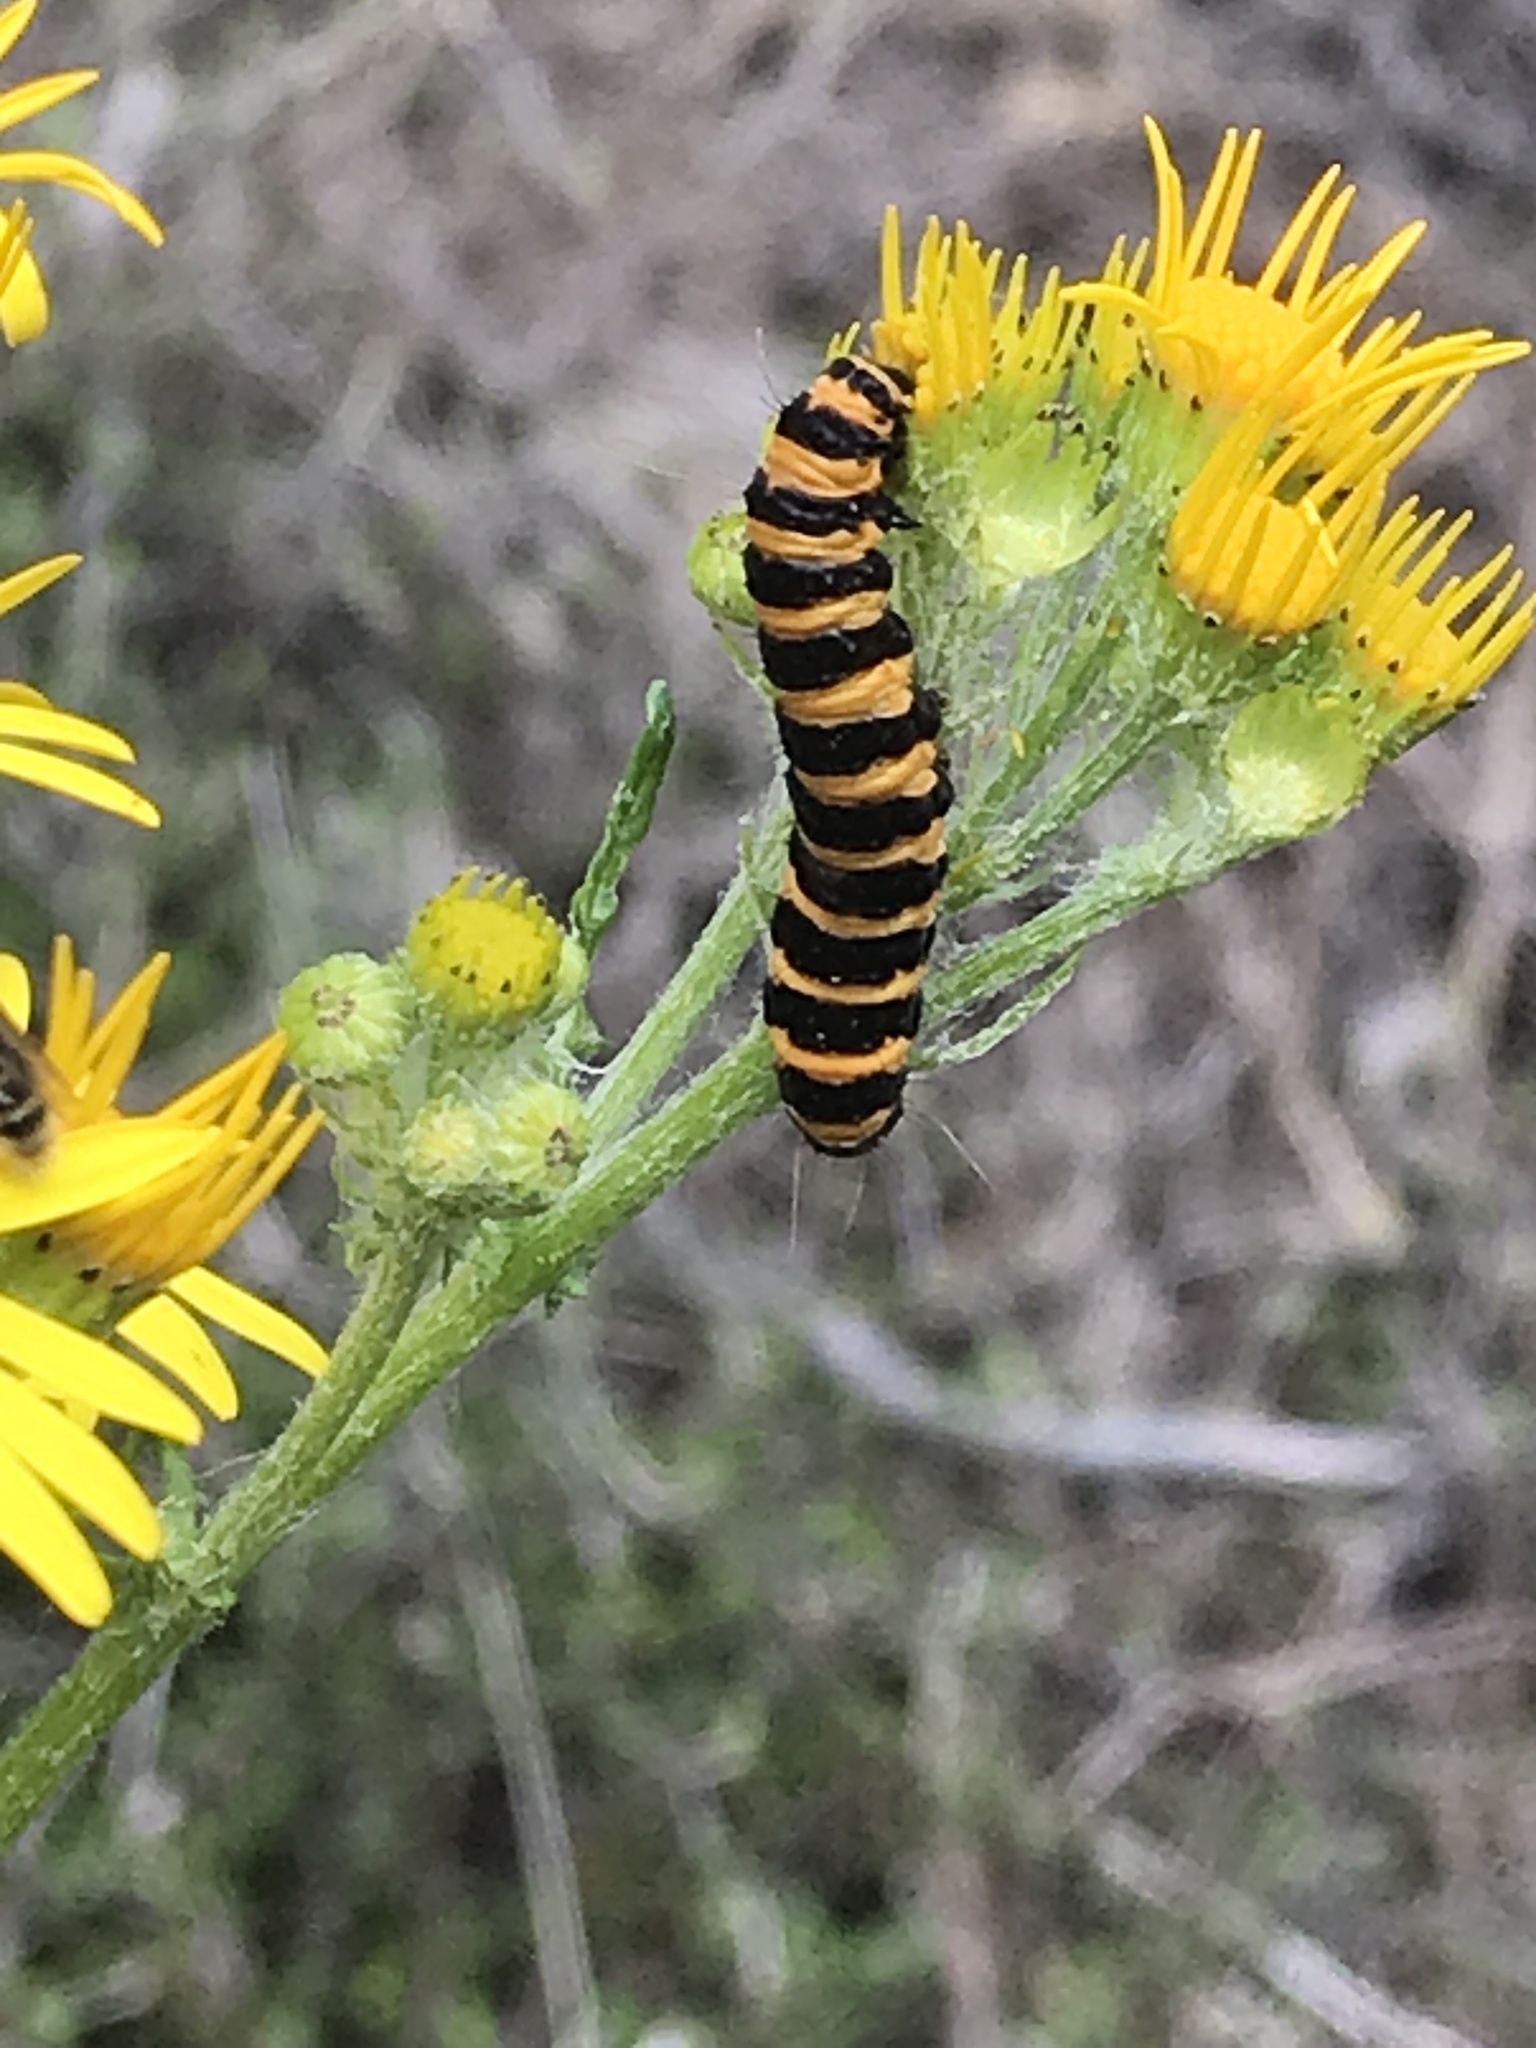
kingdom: Animalia
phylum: Arthropoda
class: Insecta
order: Lepidoptera
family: Erebidae
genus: Tyria
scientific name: Tyria jacobaeae
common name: Cinnabar
